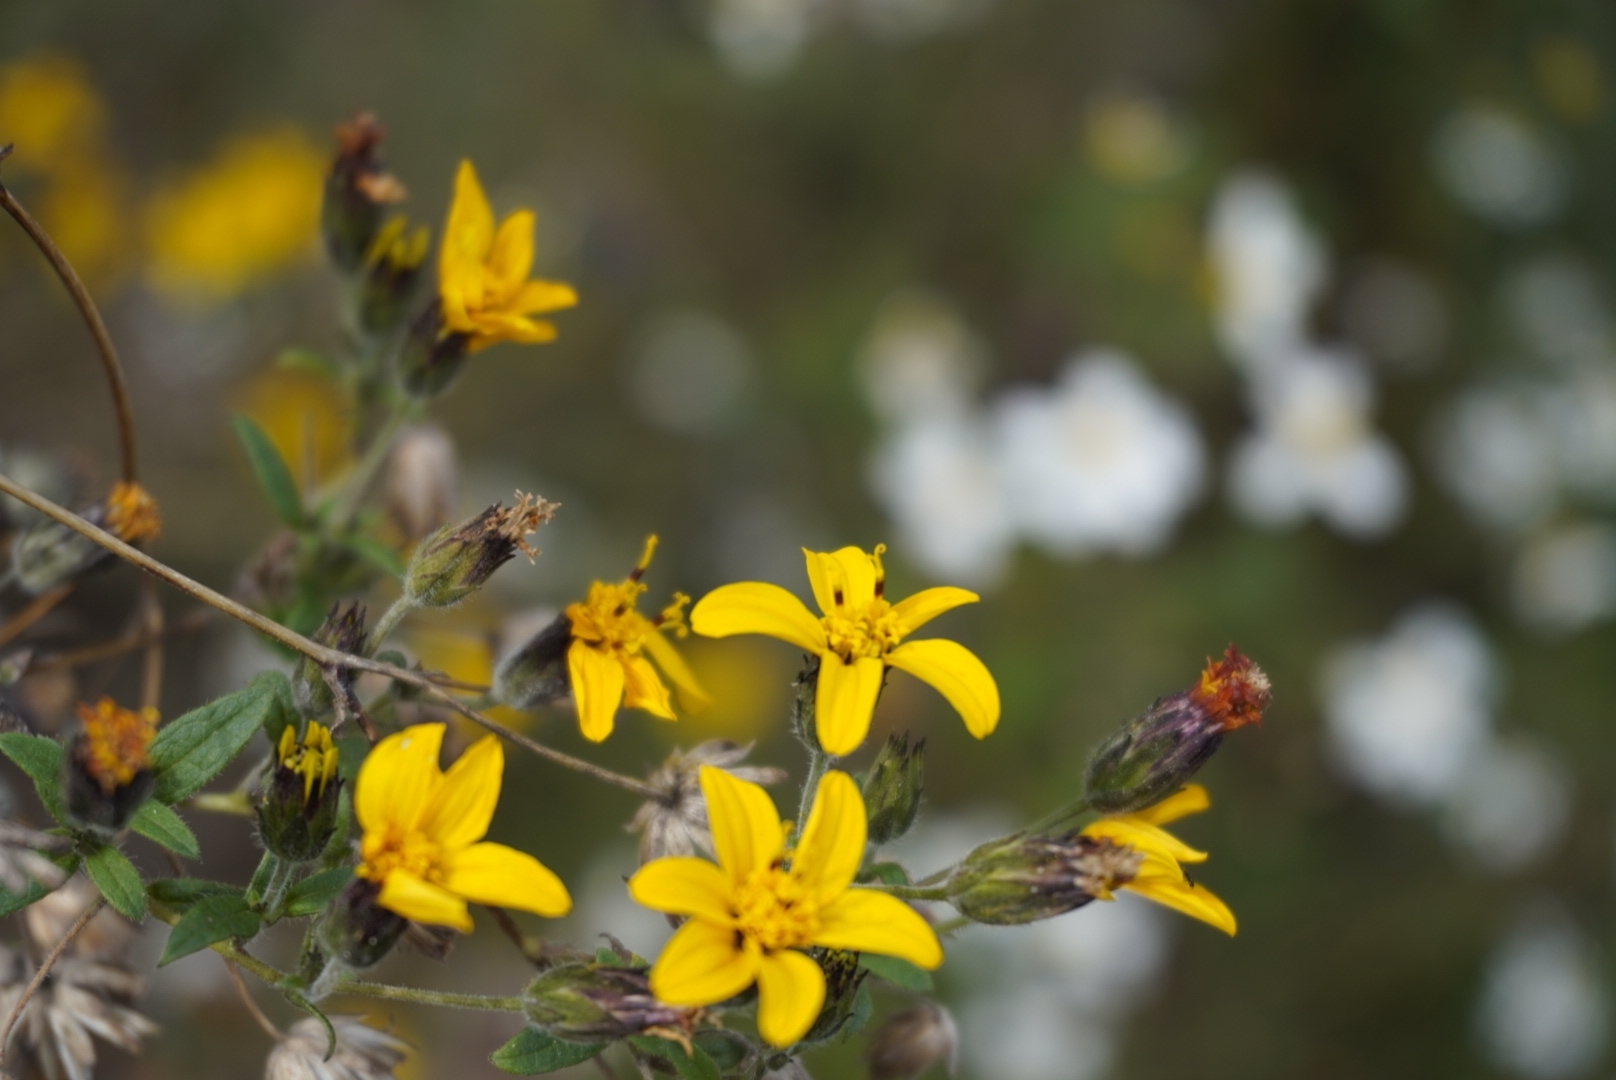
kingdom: Plantae
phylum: Tracheophyta
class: Magnoliopsida
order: Asterales
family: Asteraceae
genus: Simsia
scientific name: Simsia lagasceiformis
